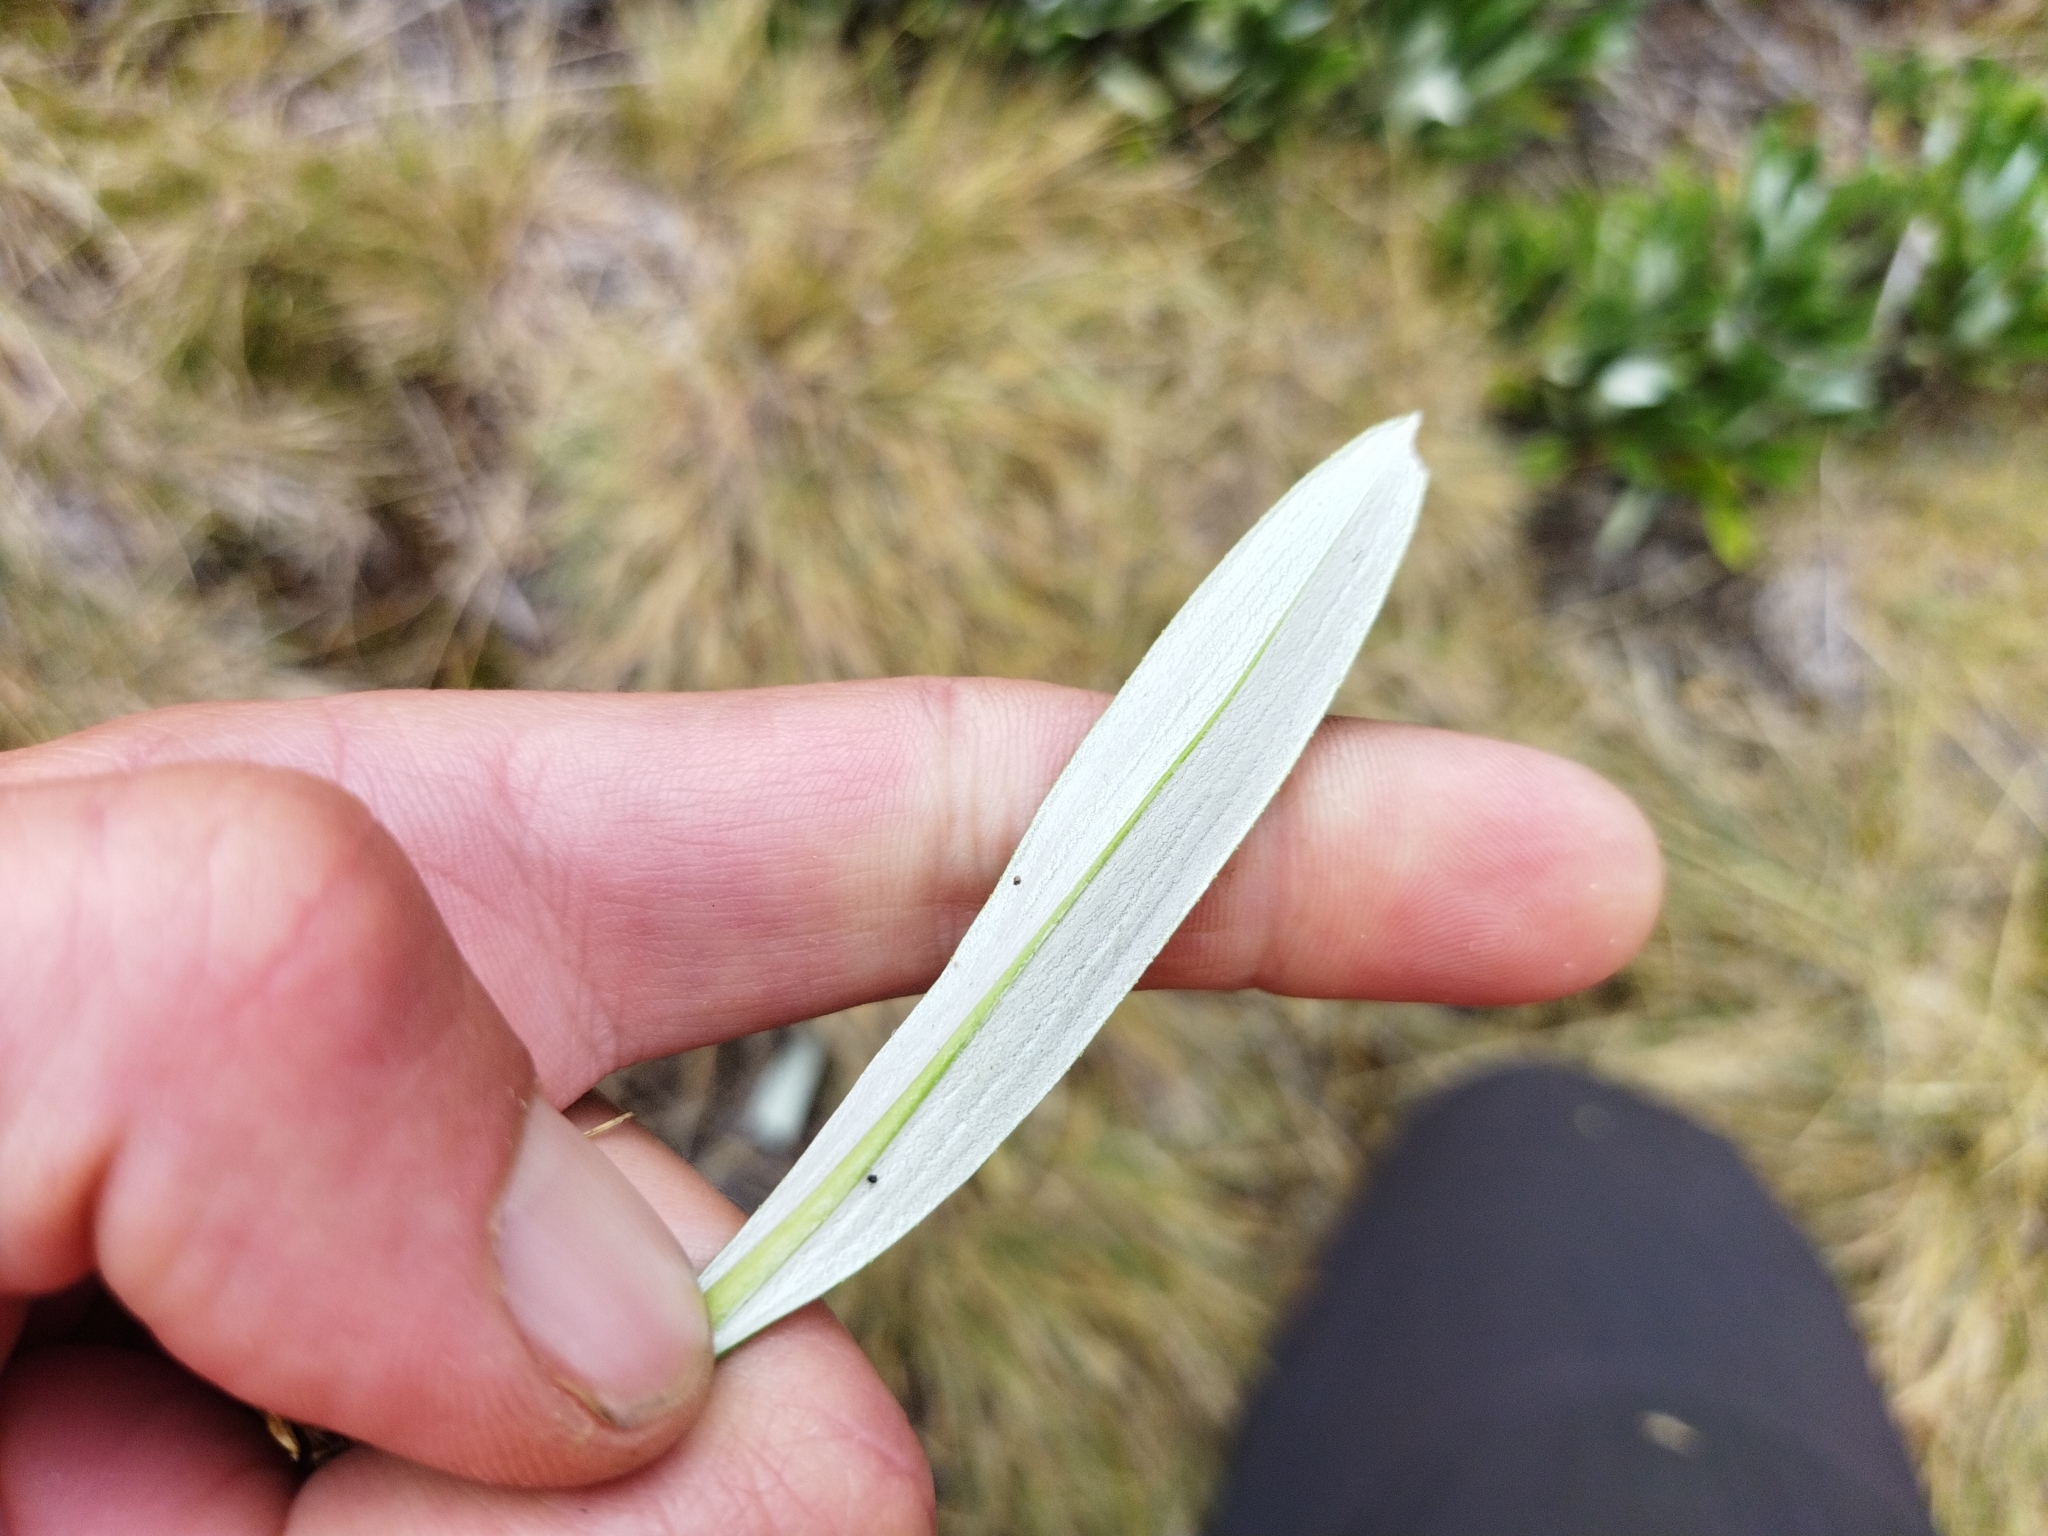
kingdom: Plantae
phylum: Tracheophyta
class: Magnoliopsida
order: Asterales
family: Asteraceae
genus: Celmisia
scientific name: Celmisia densiflora
